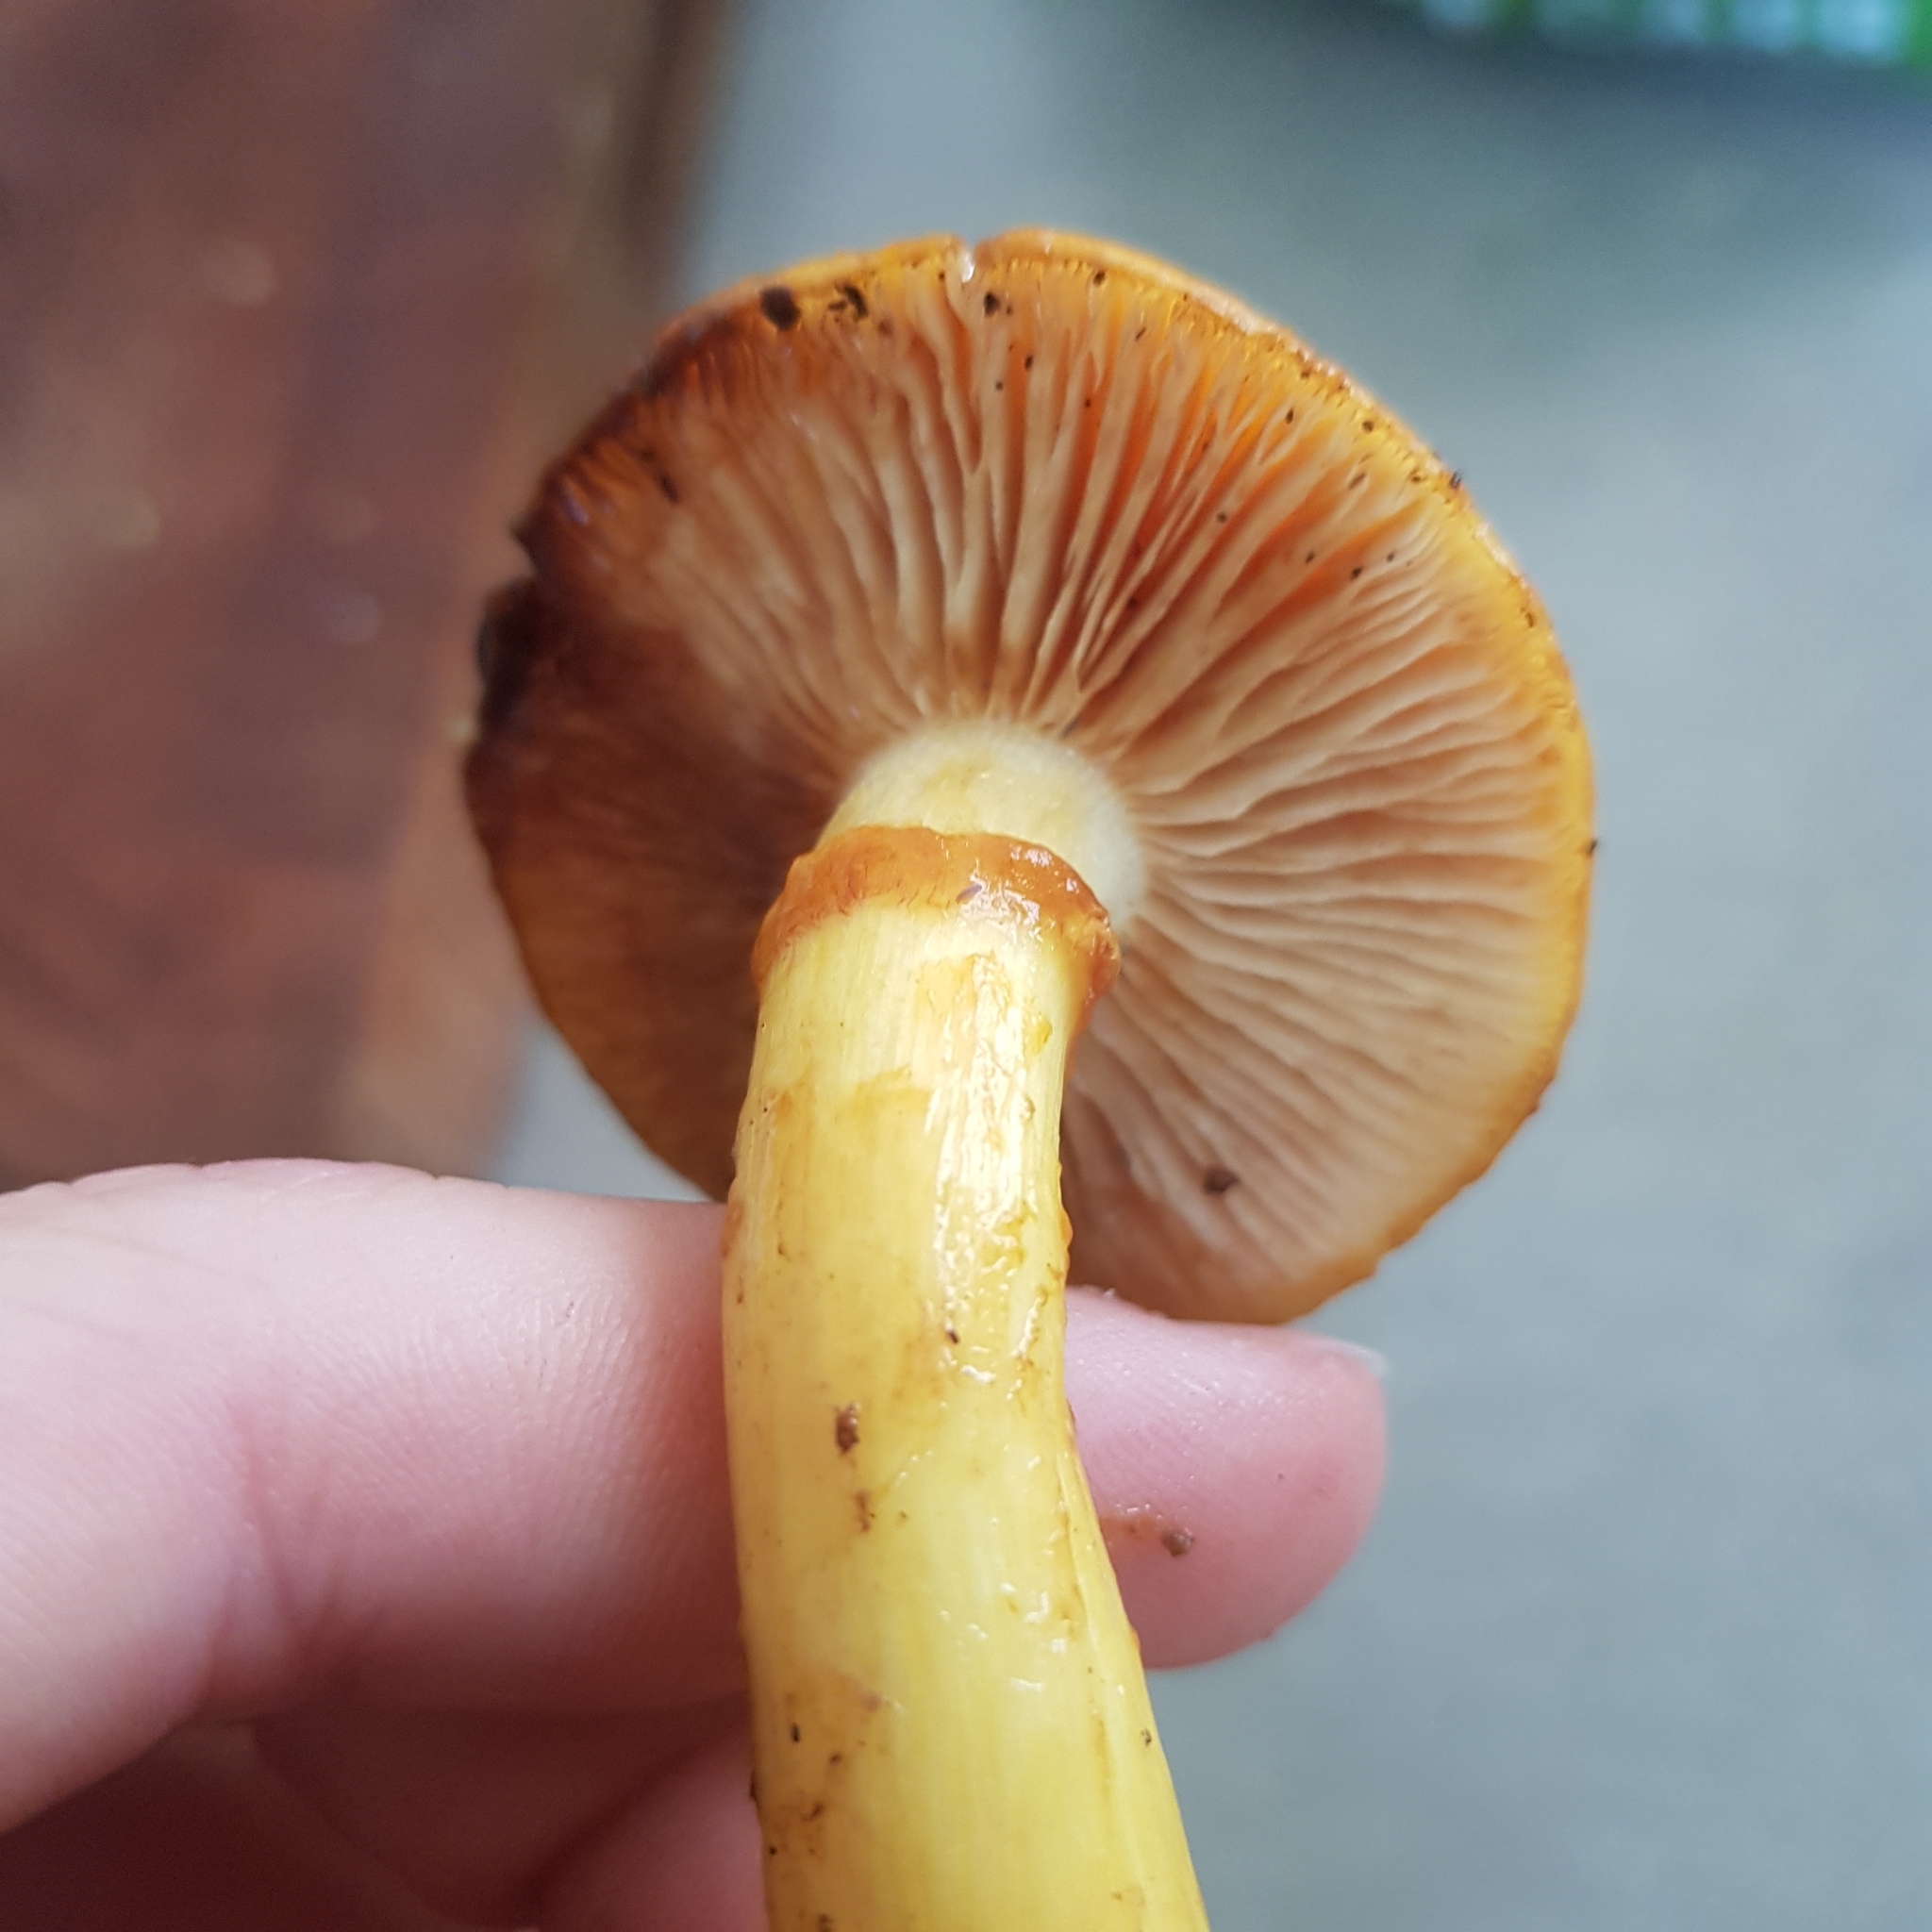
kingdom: Fungi
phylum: Basidiomycota
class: Agaricomycetes
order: Agaricales
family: Hymenogastraceae
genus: Gymnopilus
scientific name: Gymnopilus junonius
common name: Spectacular rustgill
